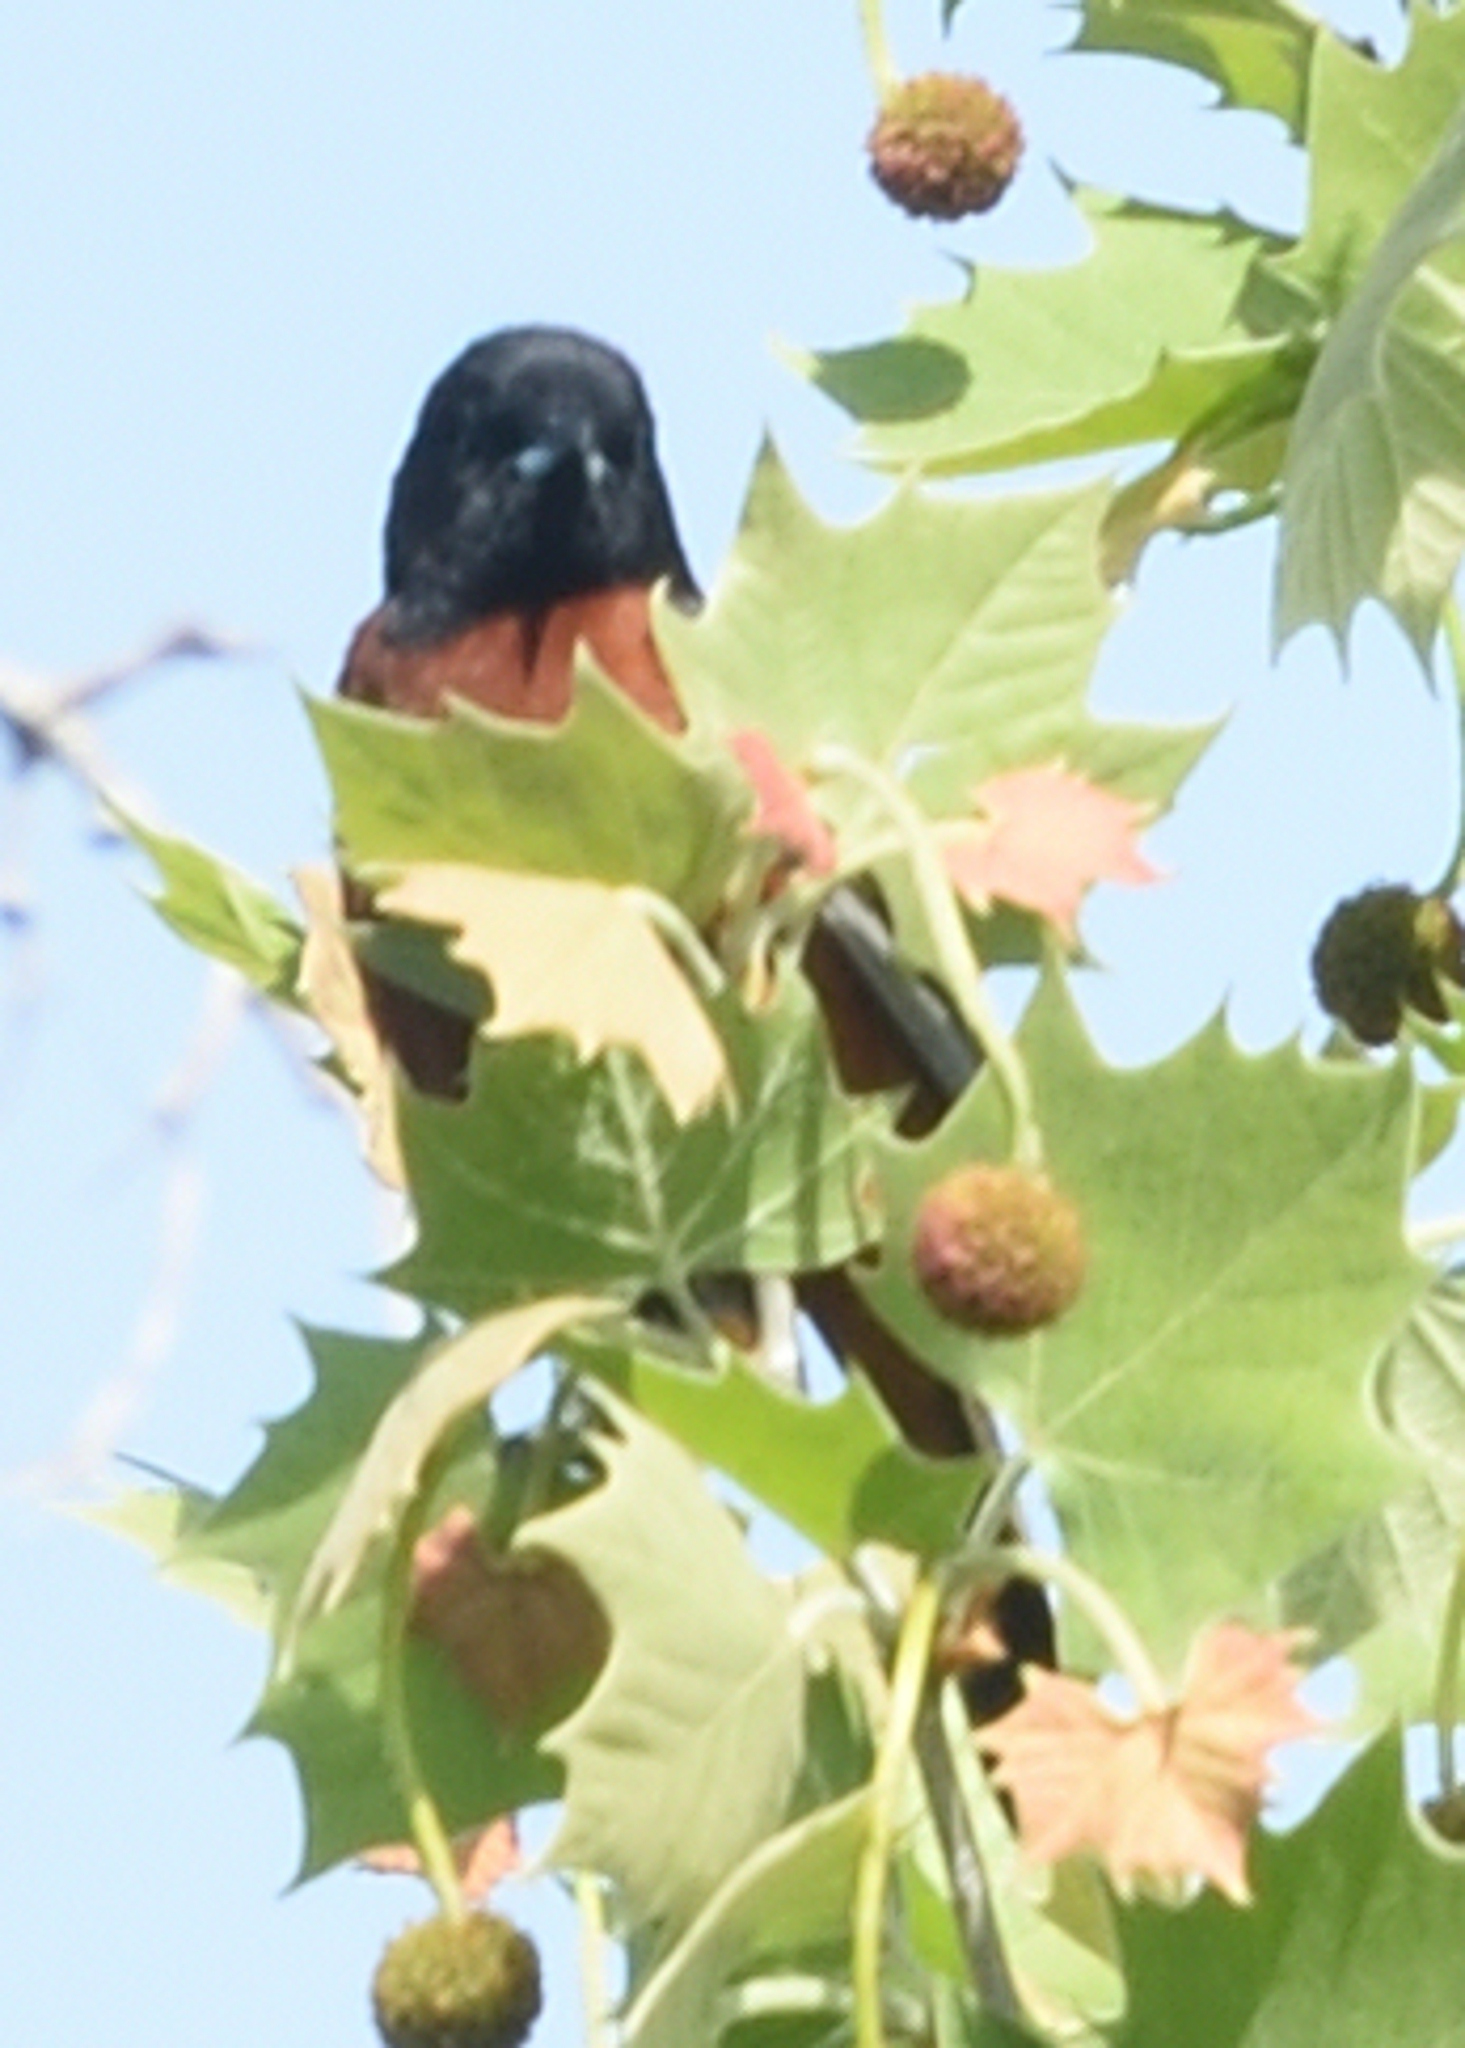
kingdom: Animalia
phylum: Chordata
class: Aves
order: Passeriformes
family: Icteridae
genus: Icterus
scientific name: Icterus spurius
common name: Orchard oriole
